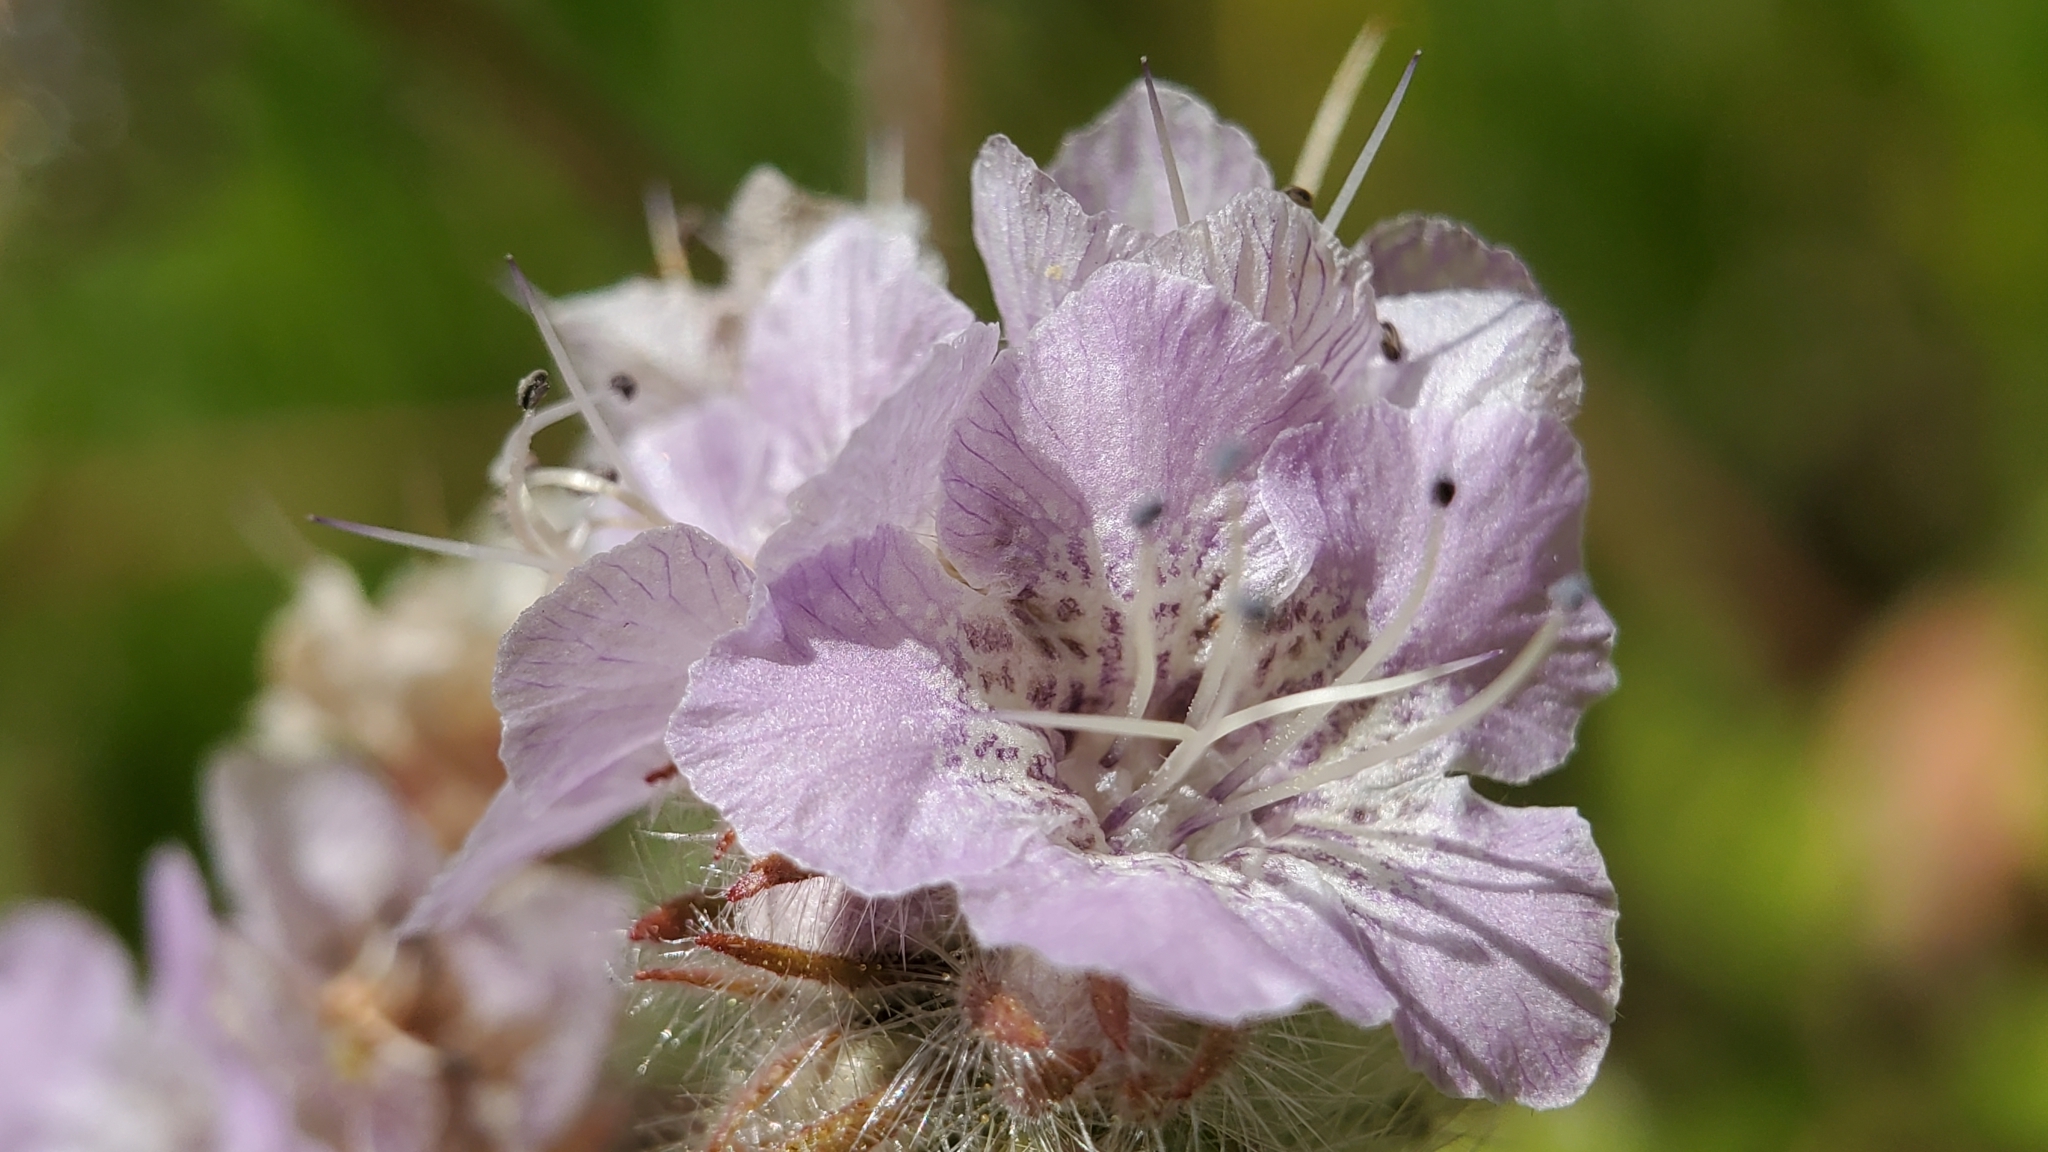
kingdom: Plantae
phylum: Tracheophyta
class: Magnoliopsida
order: Boraginales
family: Hydrophyllaceae
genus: Phacelia
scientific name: Phacelia cicutaria
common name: Caterpillar phacelia
